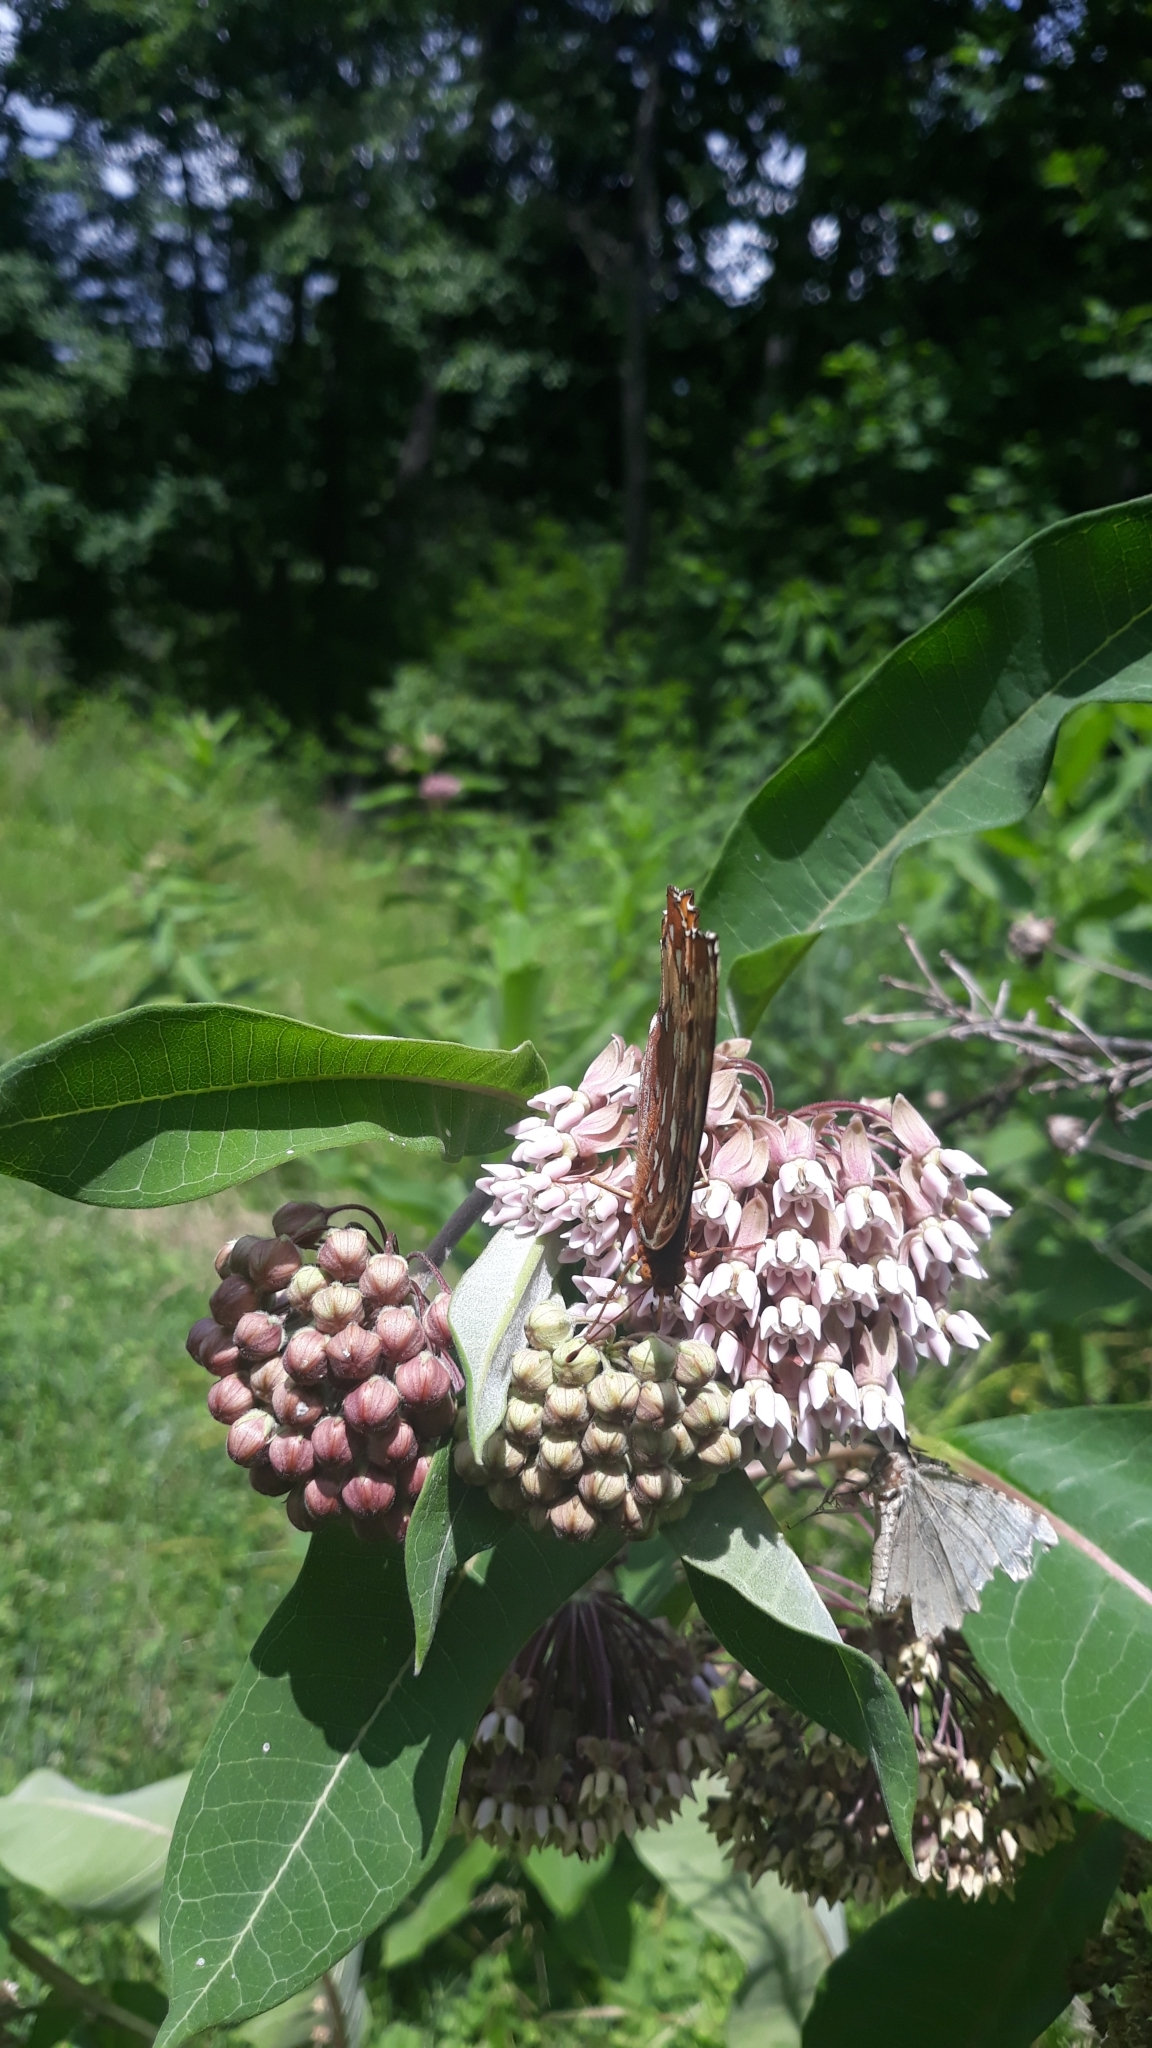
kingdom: Animalia
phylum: Arthropoda
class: Insecta
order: Lepidoptera
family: Nymphalidae
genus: Speyeria
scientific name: Speyeria cybele
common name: Great spangled fritillary
